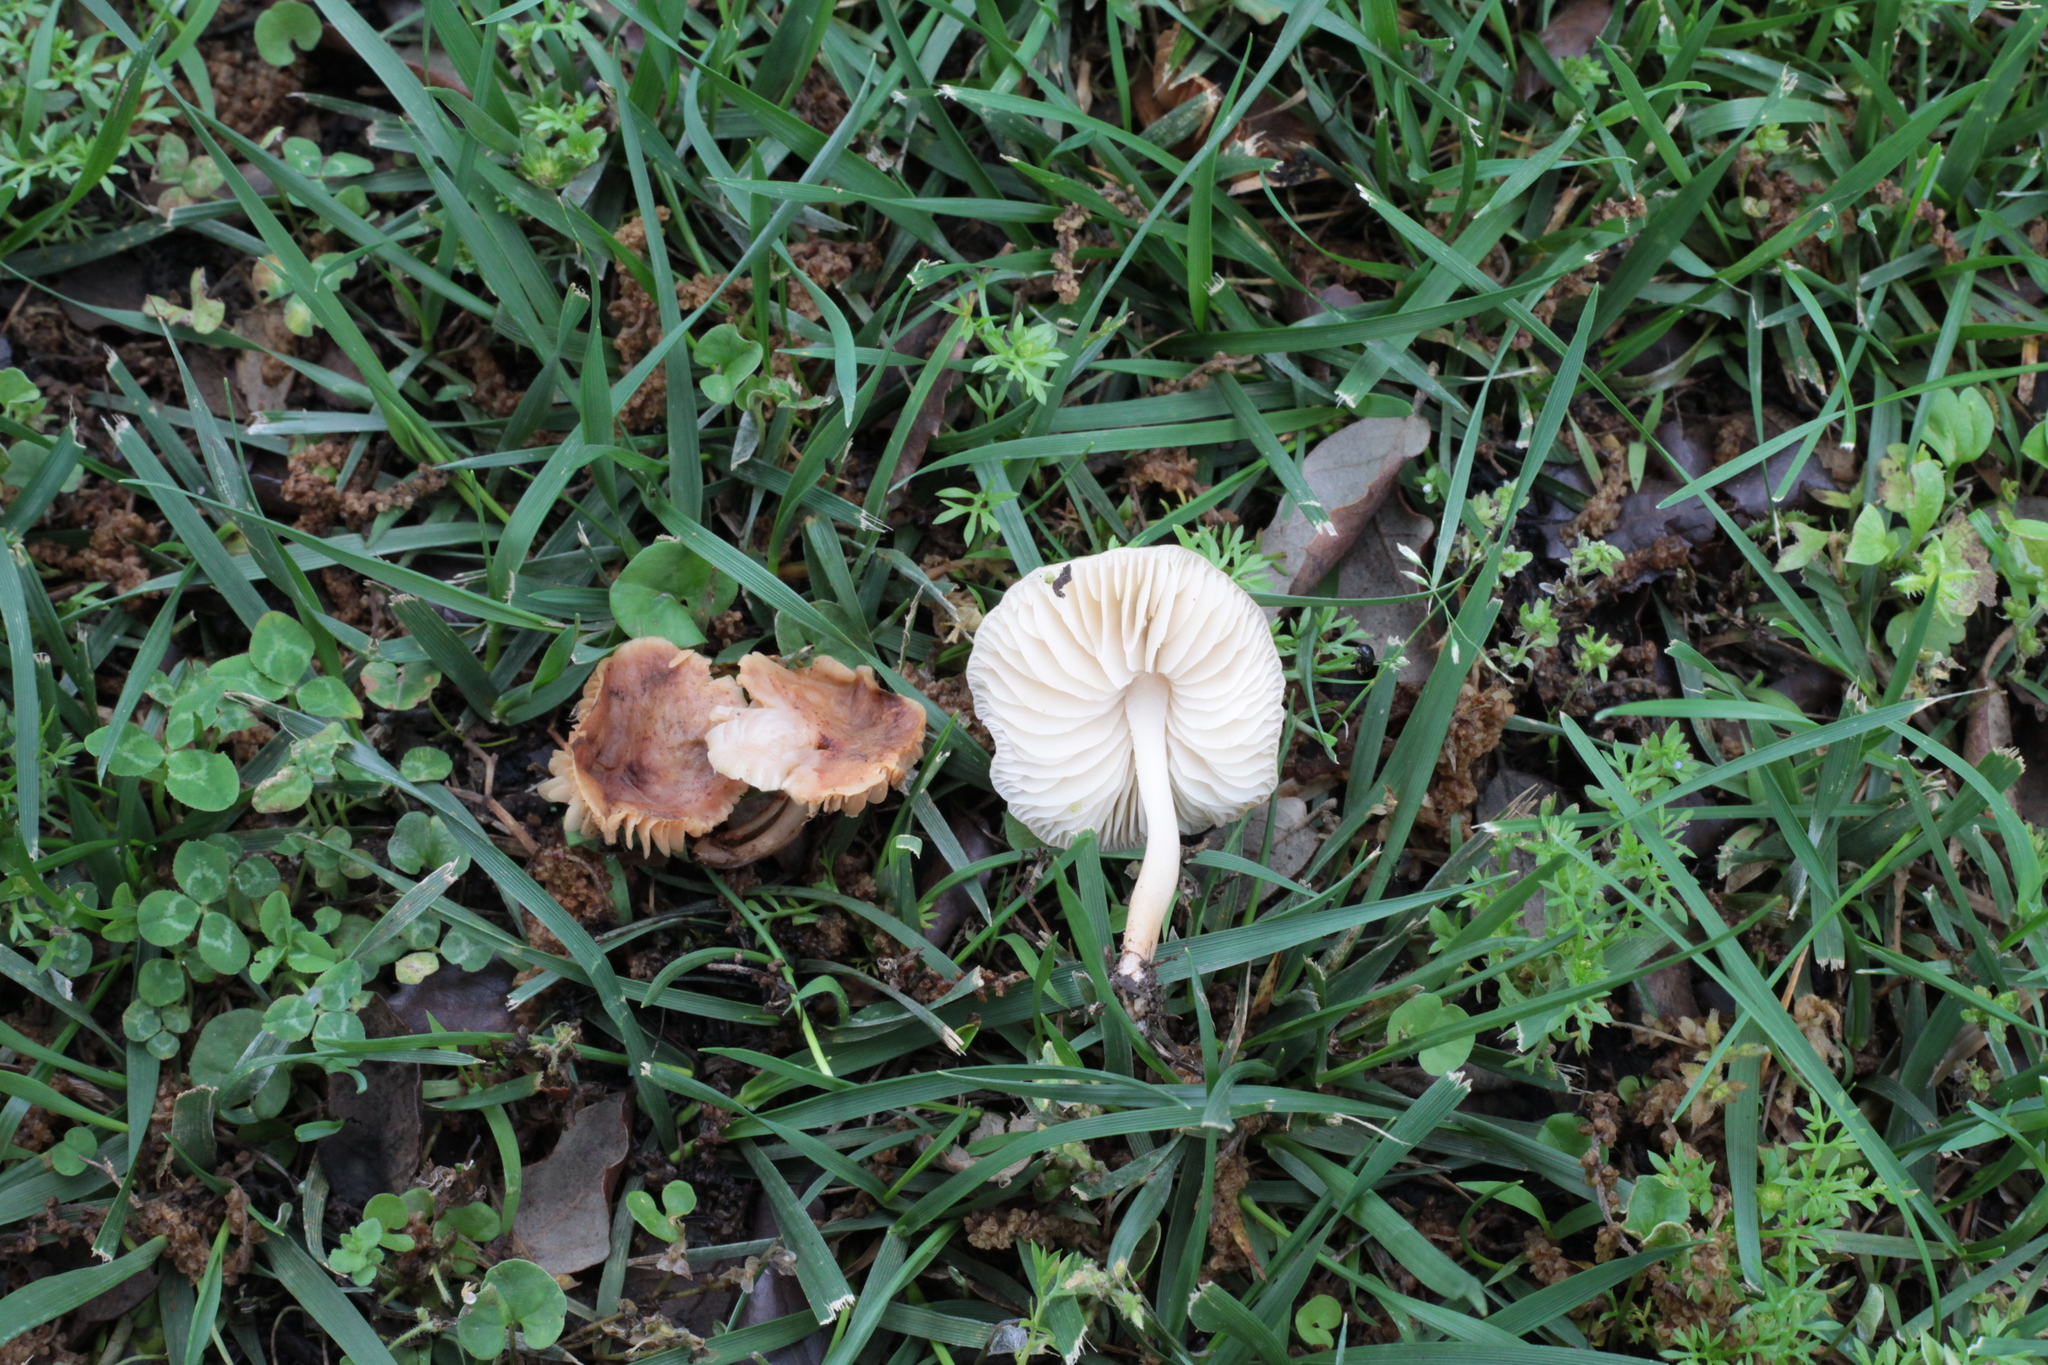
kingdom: Fungi
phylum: Basidiomycota
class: Agaricomycetes
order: Agaricales
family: Marasmiaceae
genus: Marasmius
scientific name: Marasmius collinus
